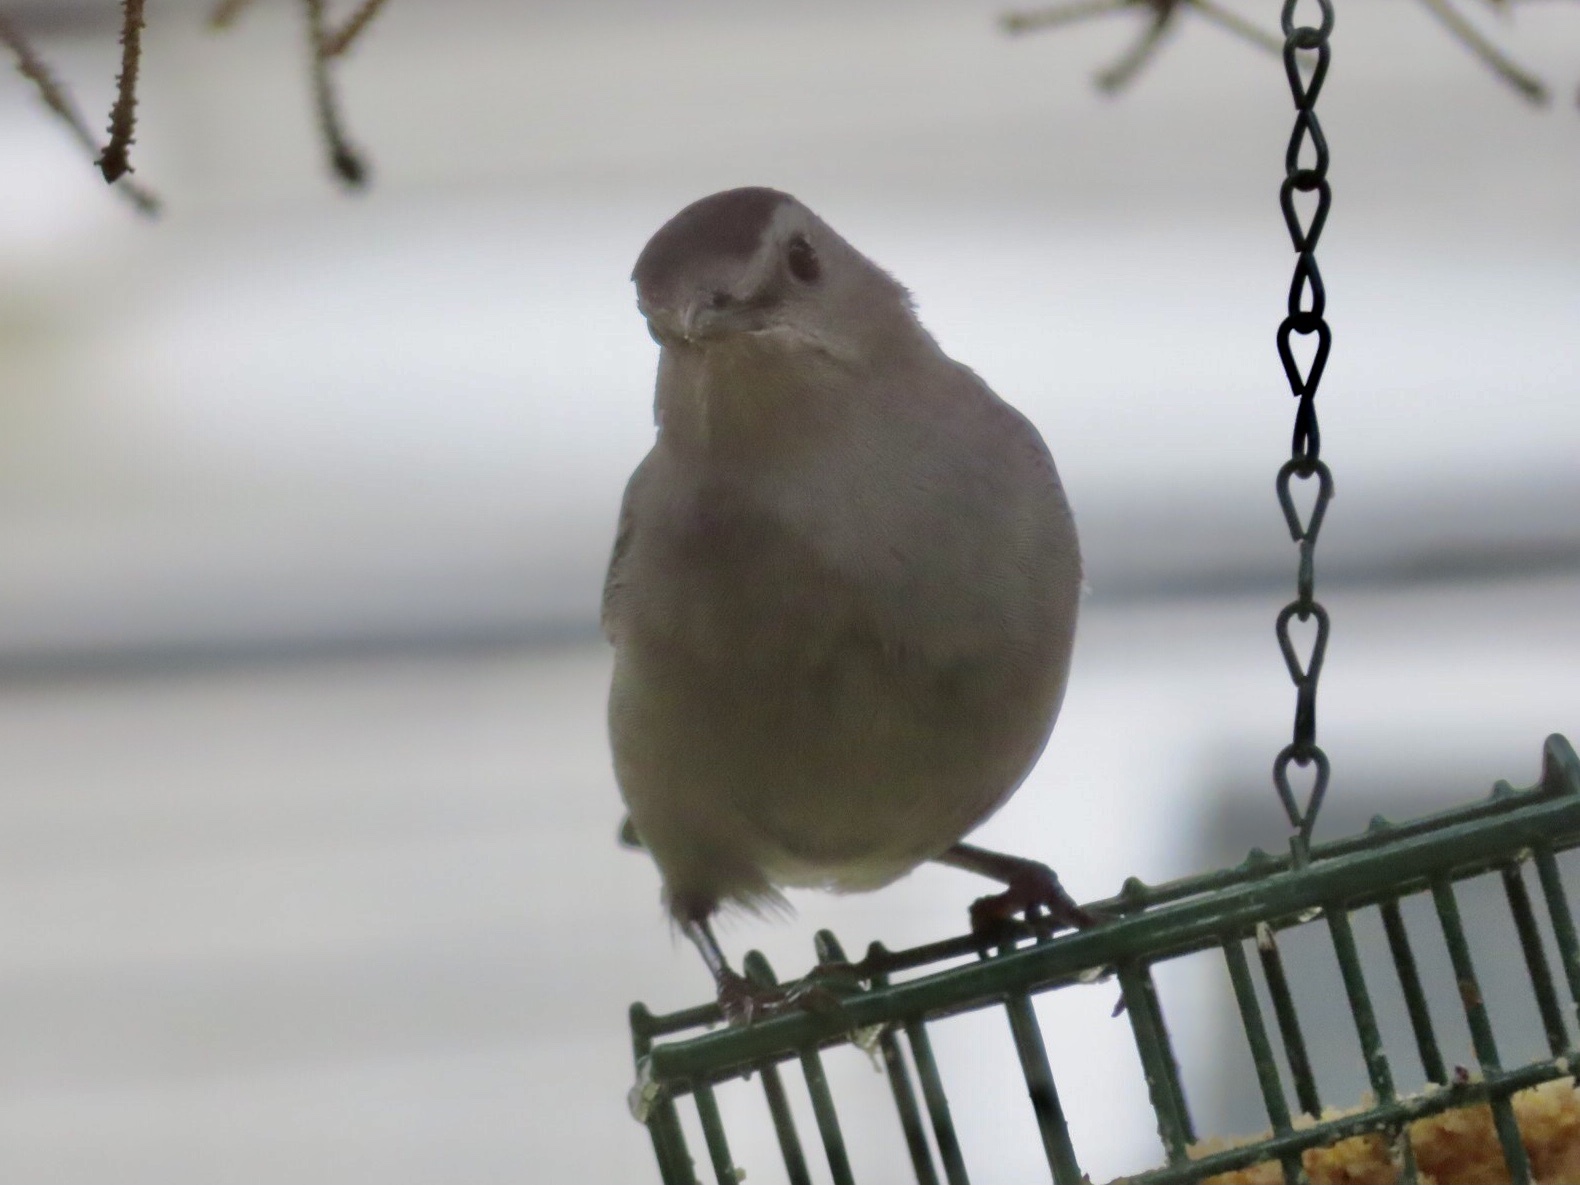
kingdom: Animalia
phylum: Chordata
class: Aves
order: Passeriformes
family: Mimidae
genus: Dumetella
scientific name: Dumetella carolinensis
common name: Gray catbird
